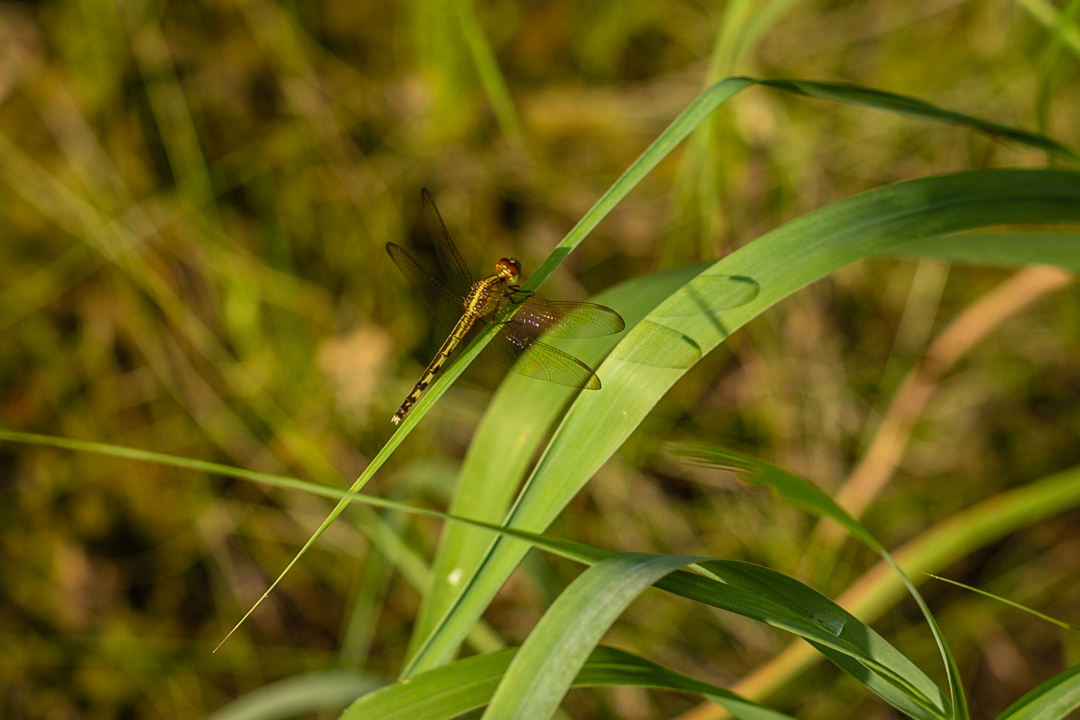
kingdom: Animalia
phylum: Arthropoda
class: Insecta
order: Odonata
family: Libellulidae
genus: Erythrodiplax
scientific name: Erythrodiplax umbrata
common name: Band-winged dragonlet
